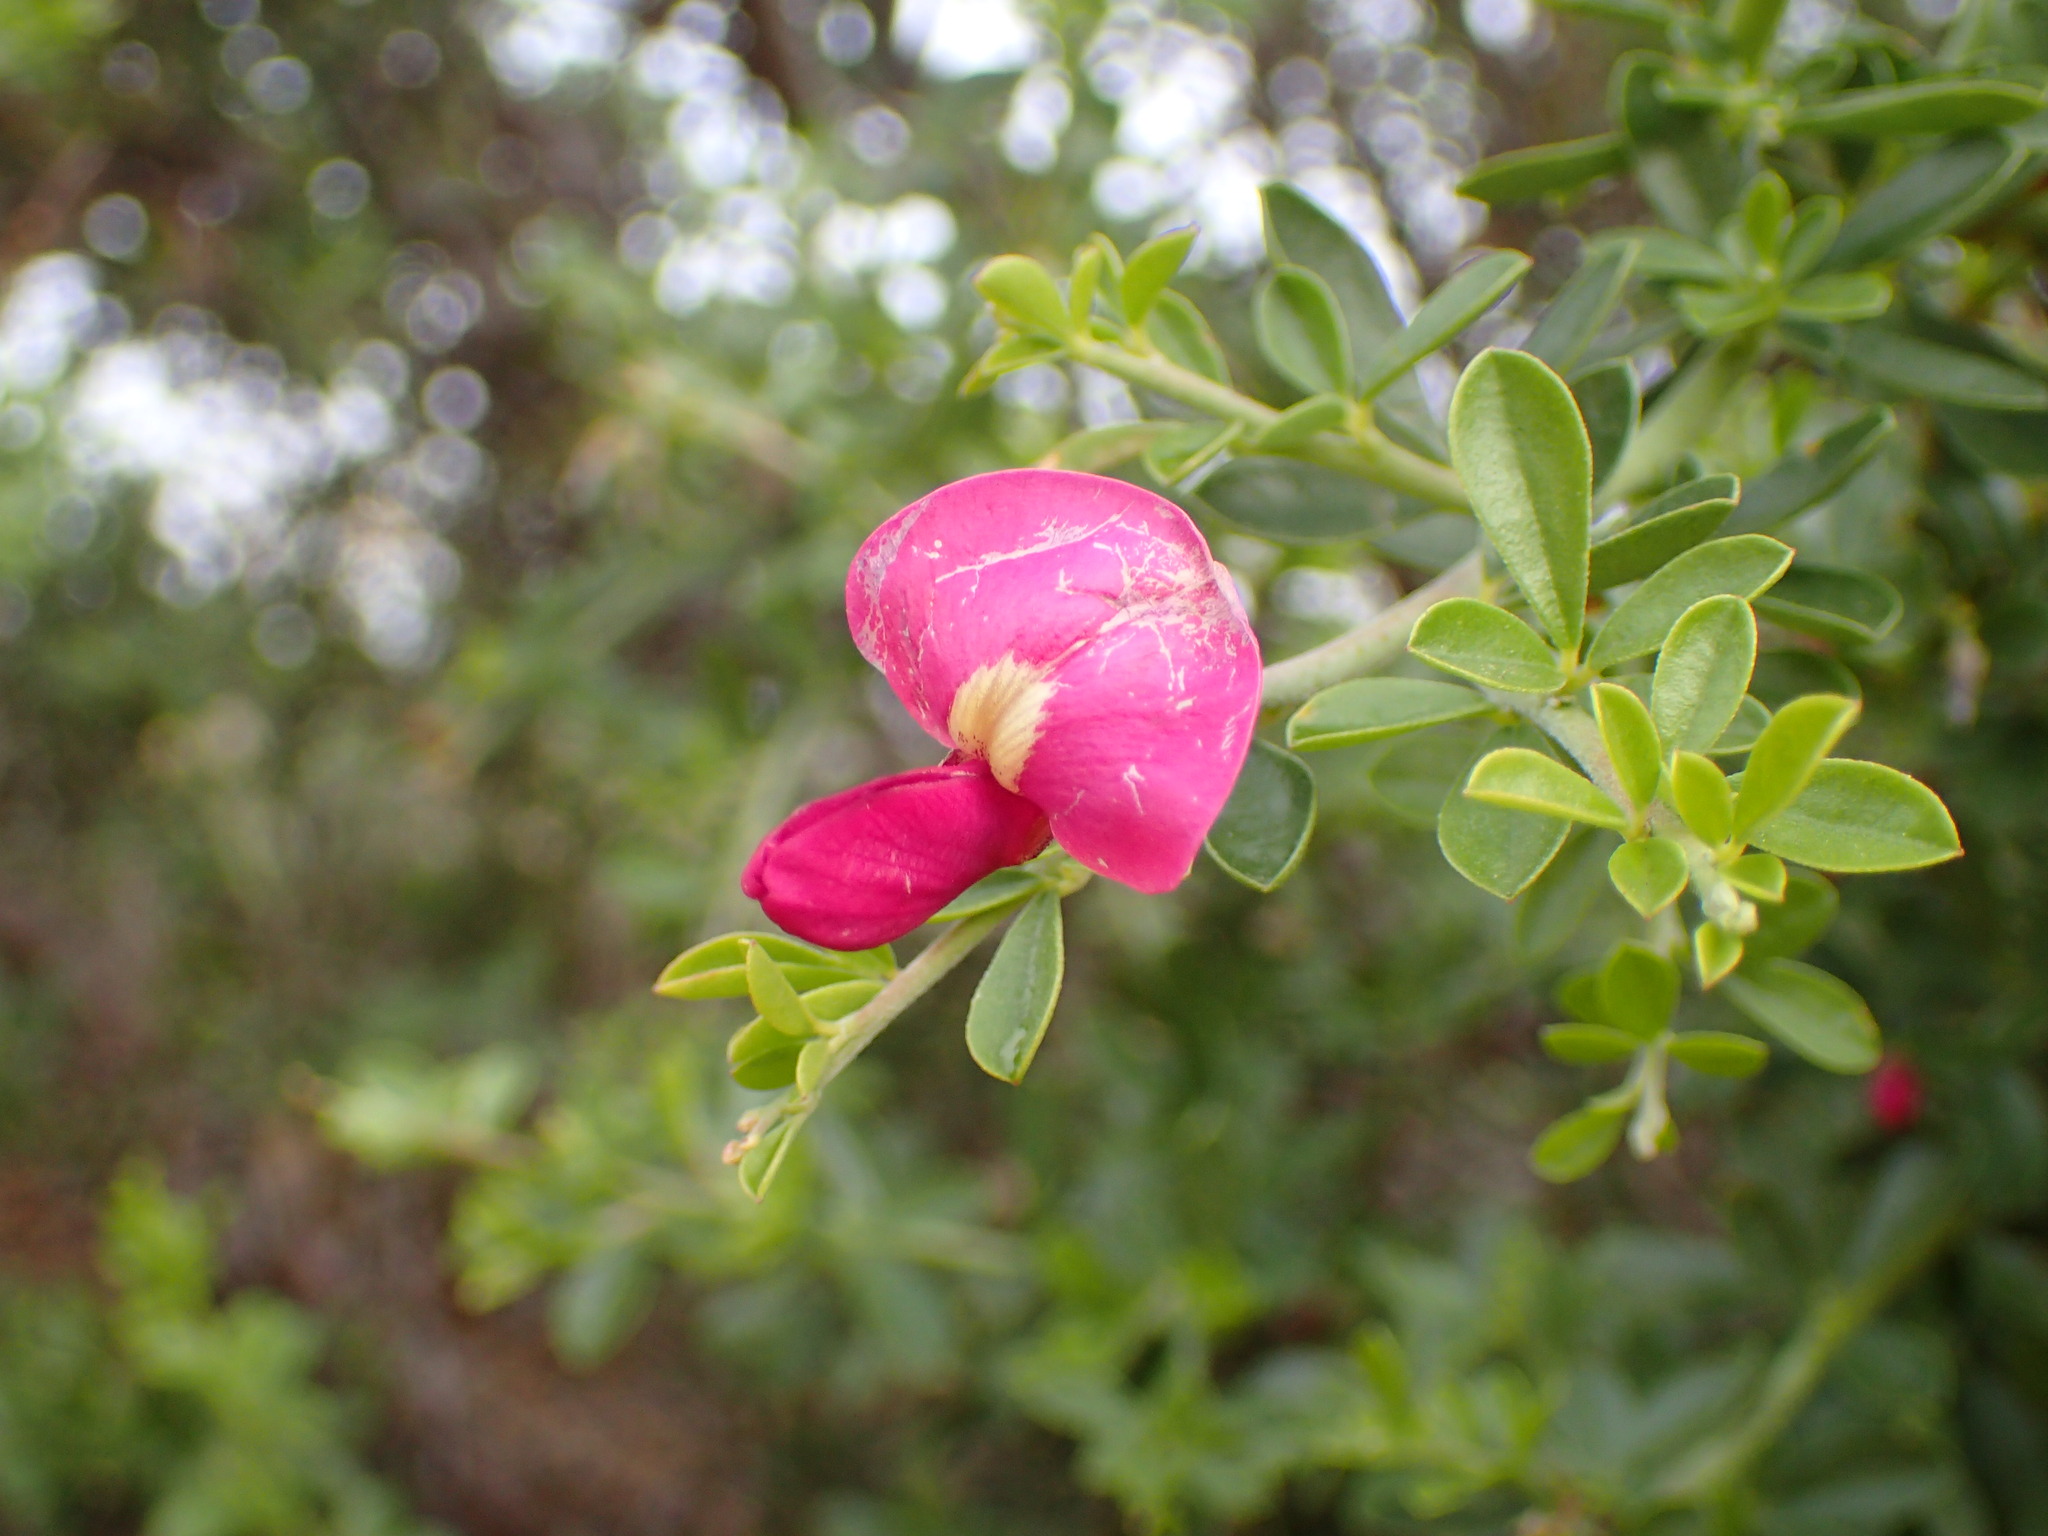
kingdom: Plantae
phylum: Tracheophyta
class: Magnoliopsida
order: Fabales
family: Fabaceae
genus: Pickeringia
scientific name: Pickeringia montana
